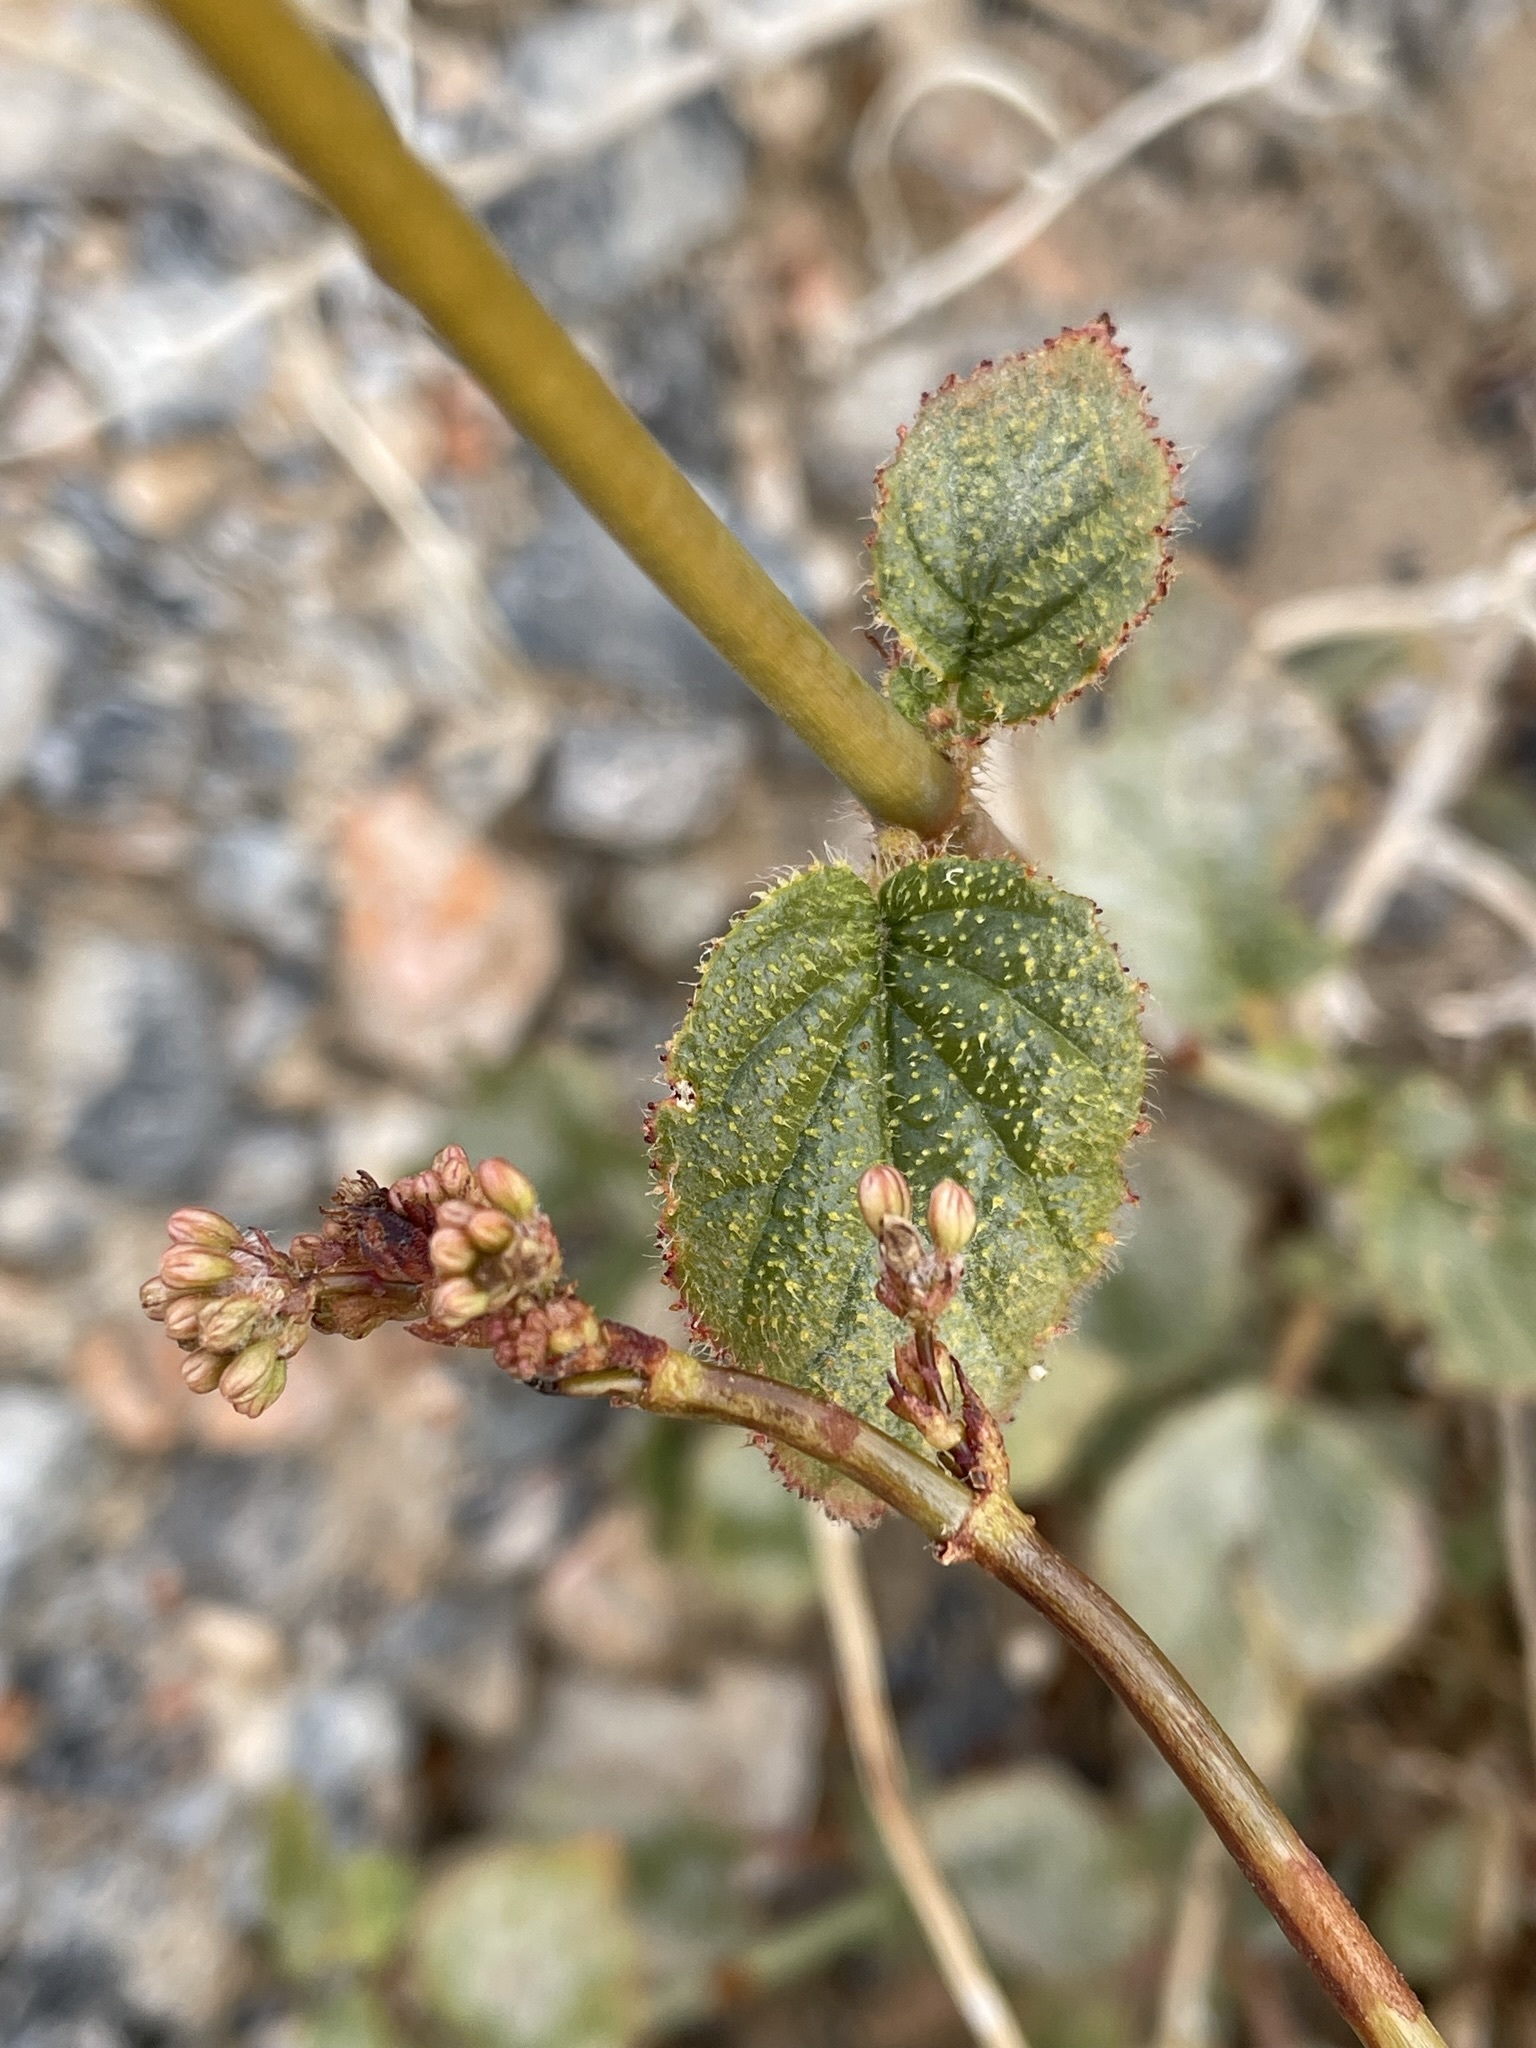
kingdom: Plantae
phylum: Tracheophyta
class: Magnoliopsida
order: Caryophyllales
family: Nyctaginaceae
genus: Anulocaulis
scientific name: Anulocaulis annulatus
